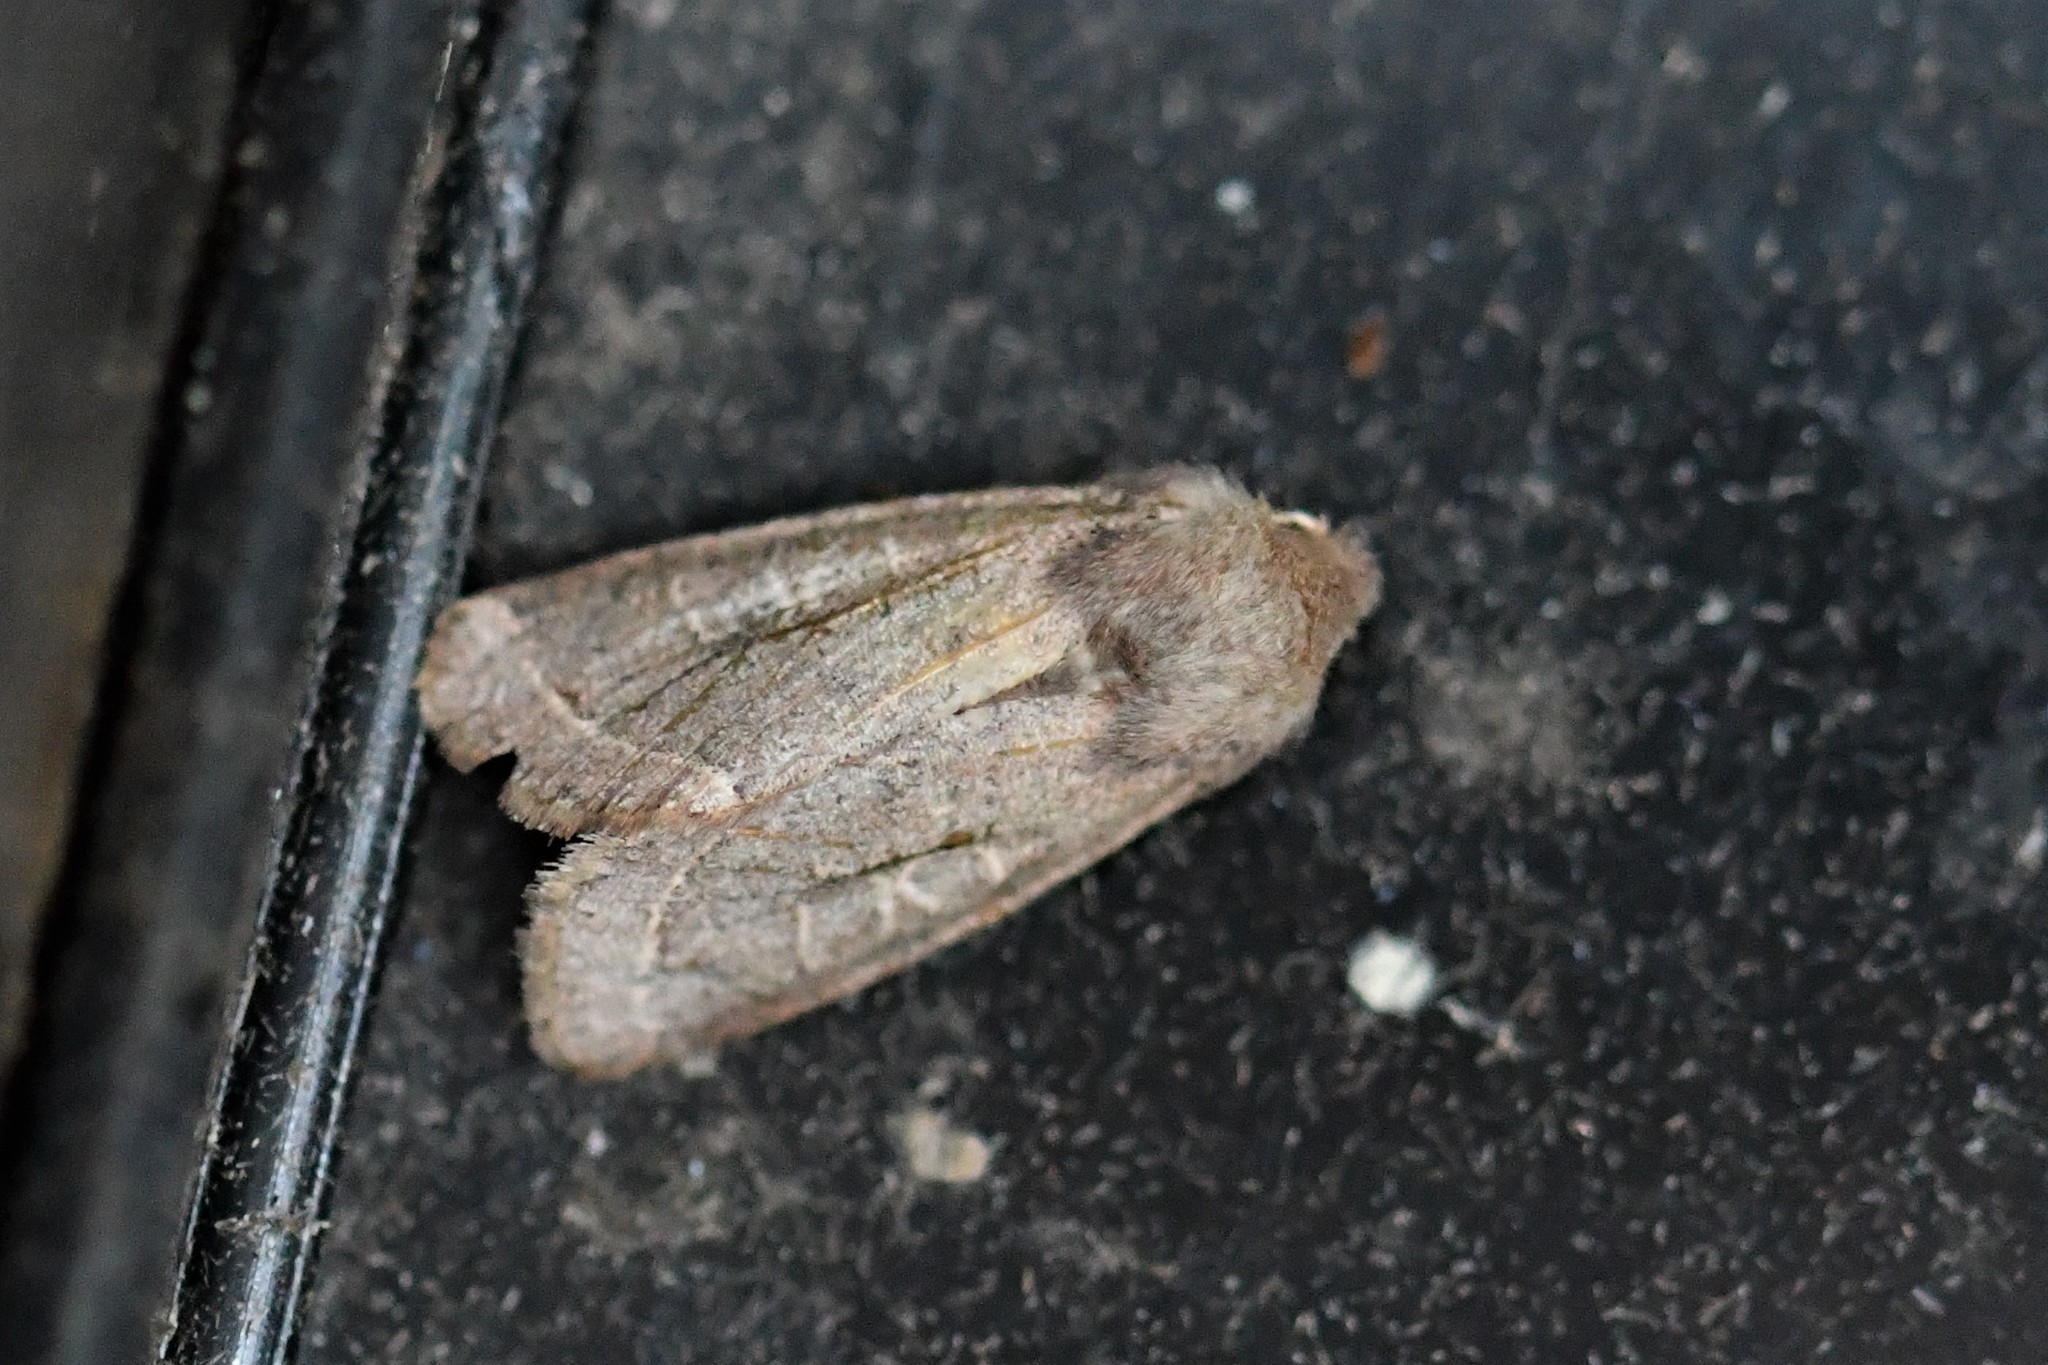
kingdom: Animalia
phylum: Arthropoda
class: Insecta
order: Lepidoptera
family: Noctuidae
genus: Orthosia
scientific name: Orthosia cerasi
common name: Common quaker
